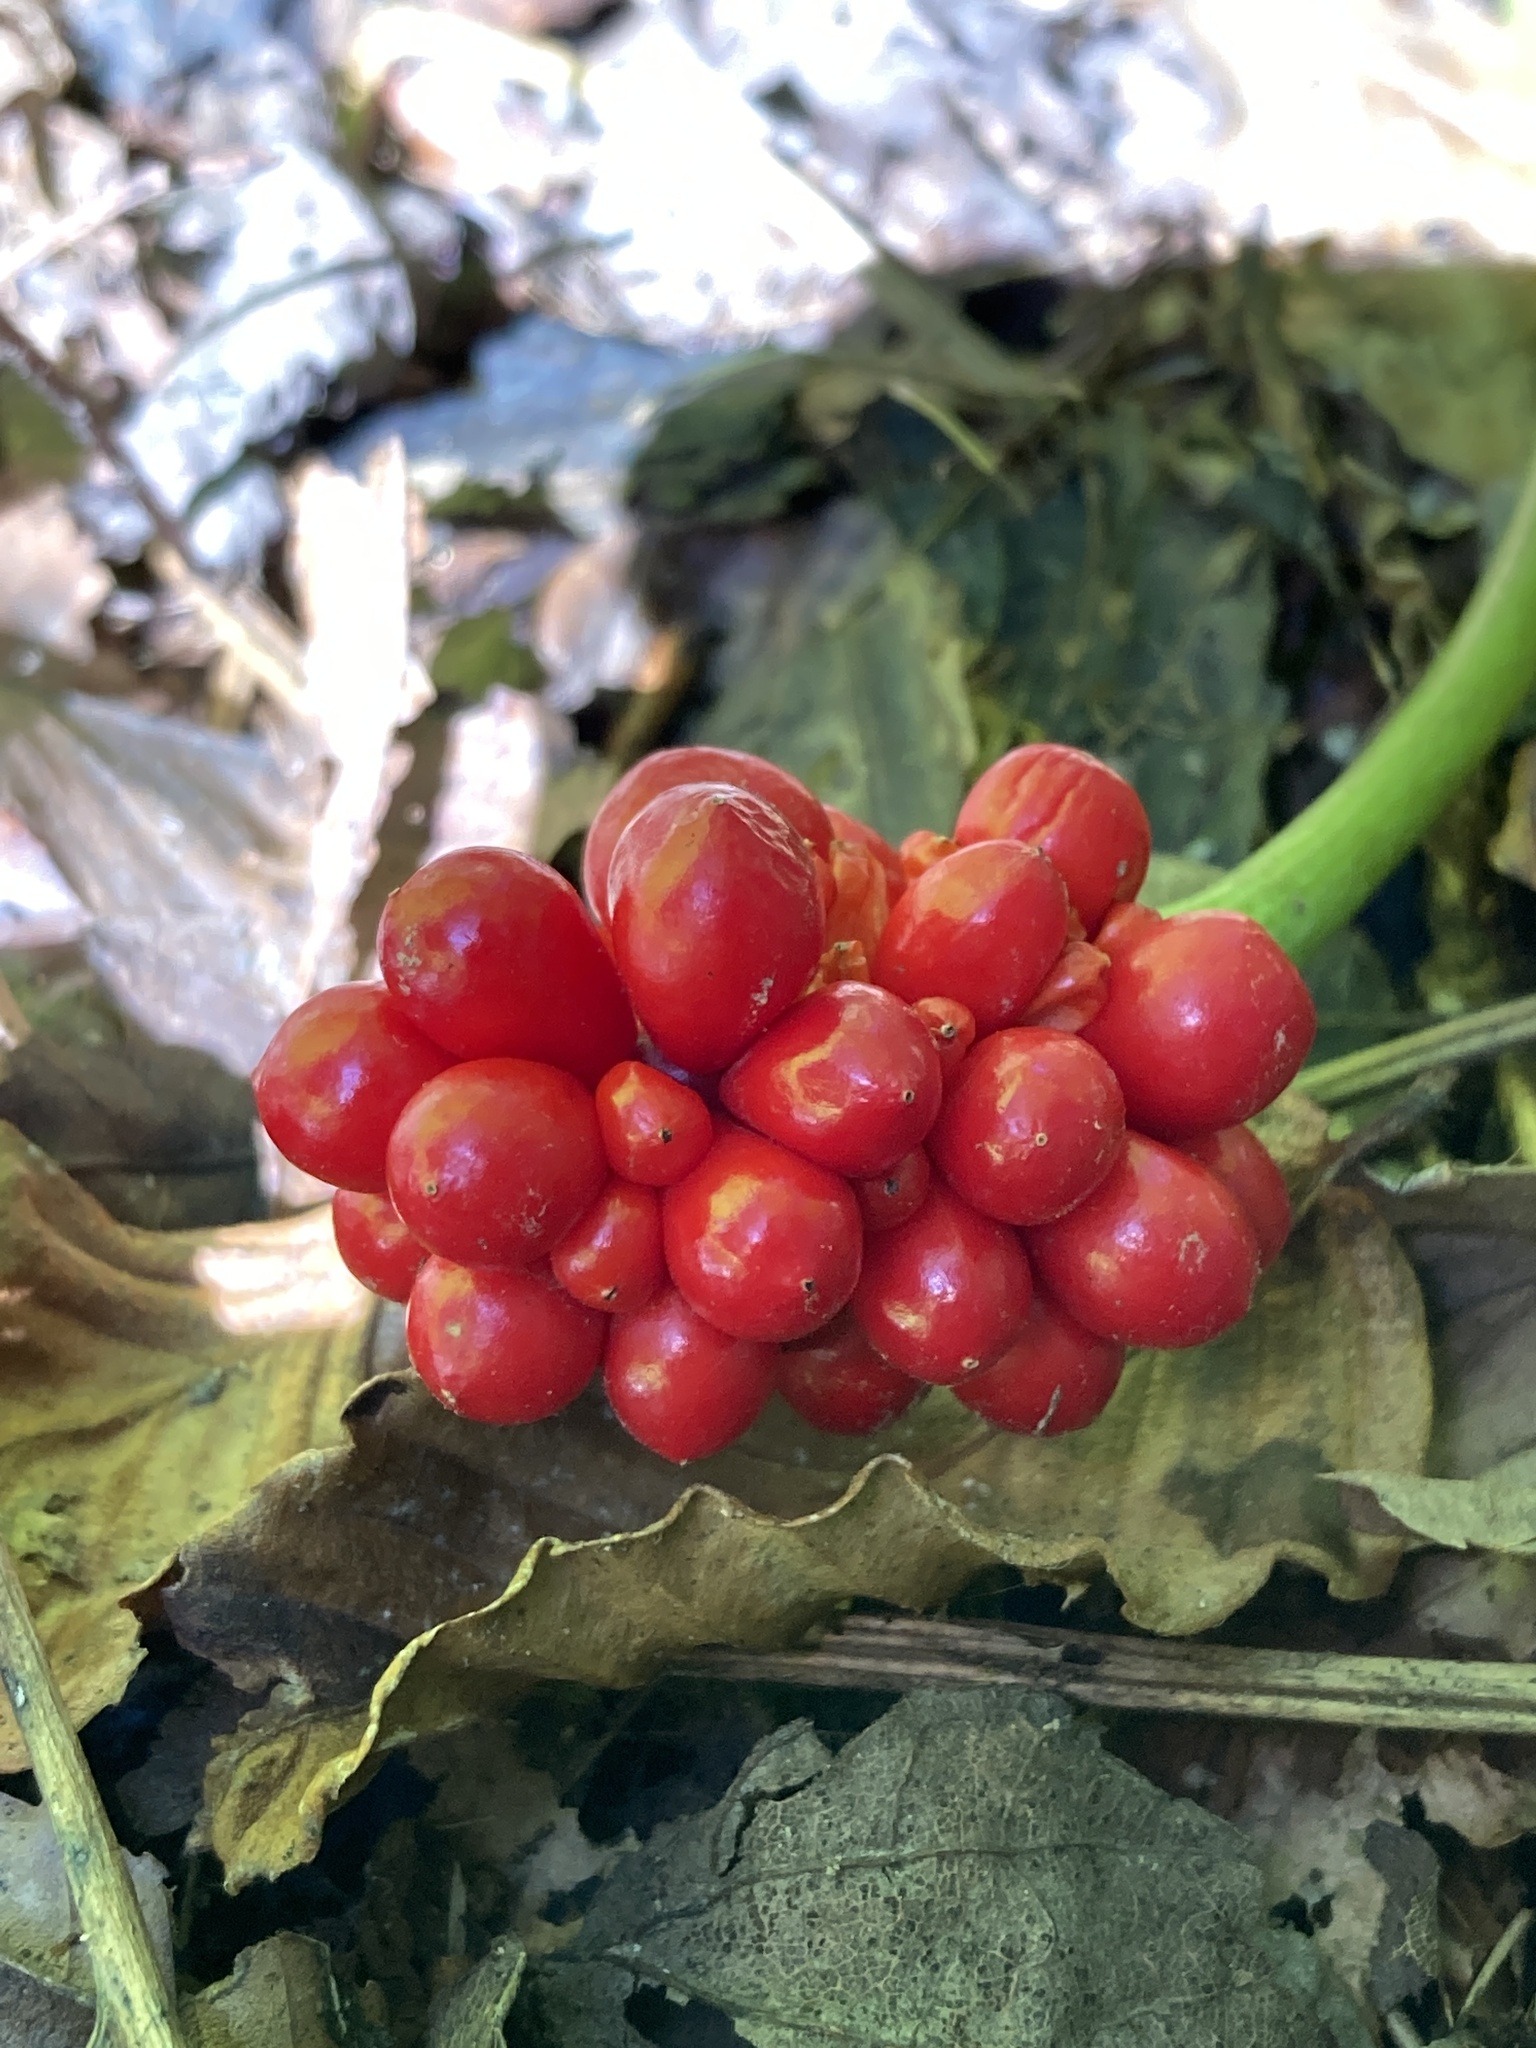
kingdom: Plantae
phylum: Tracheophyta
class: Liliopsida
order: Alismatales
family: Araceae
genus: Arisaema
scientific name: Arisaema triphyllum
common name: Jack-in-the-pulpit
